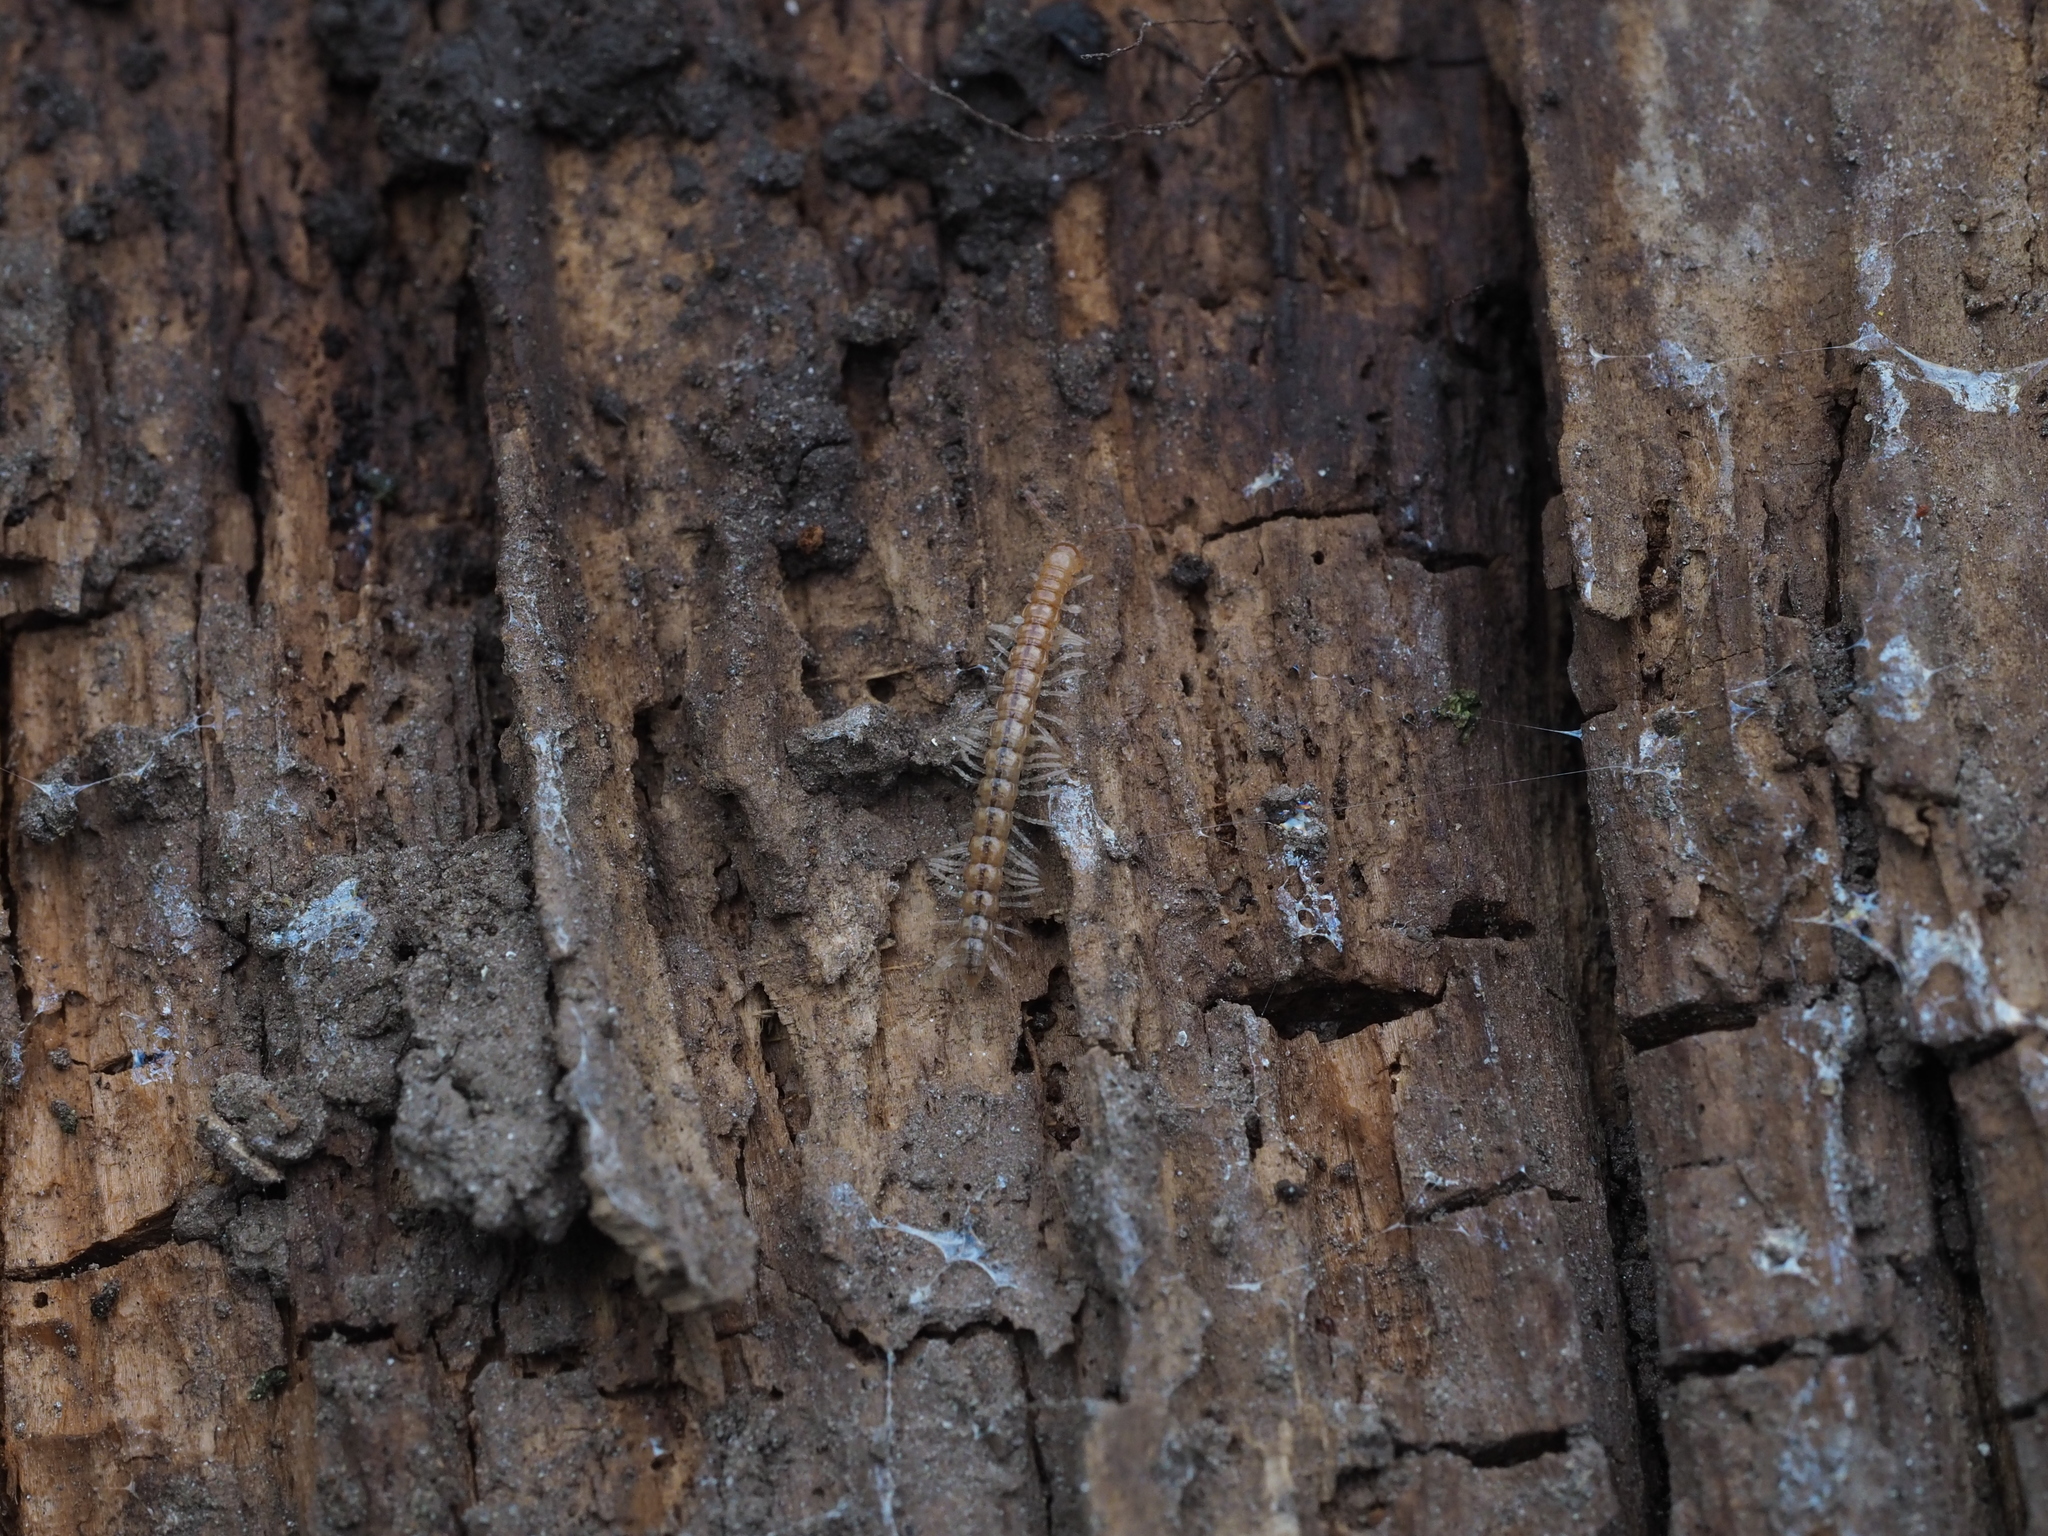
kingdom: Animalia
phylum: Arthropoda
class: Diplopoda
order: Polydesmida
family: Paradoxosomatidae
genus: Strongylosoma
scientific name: Strongylosoma stigmatosus
